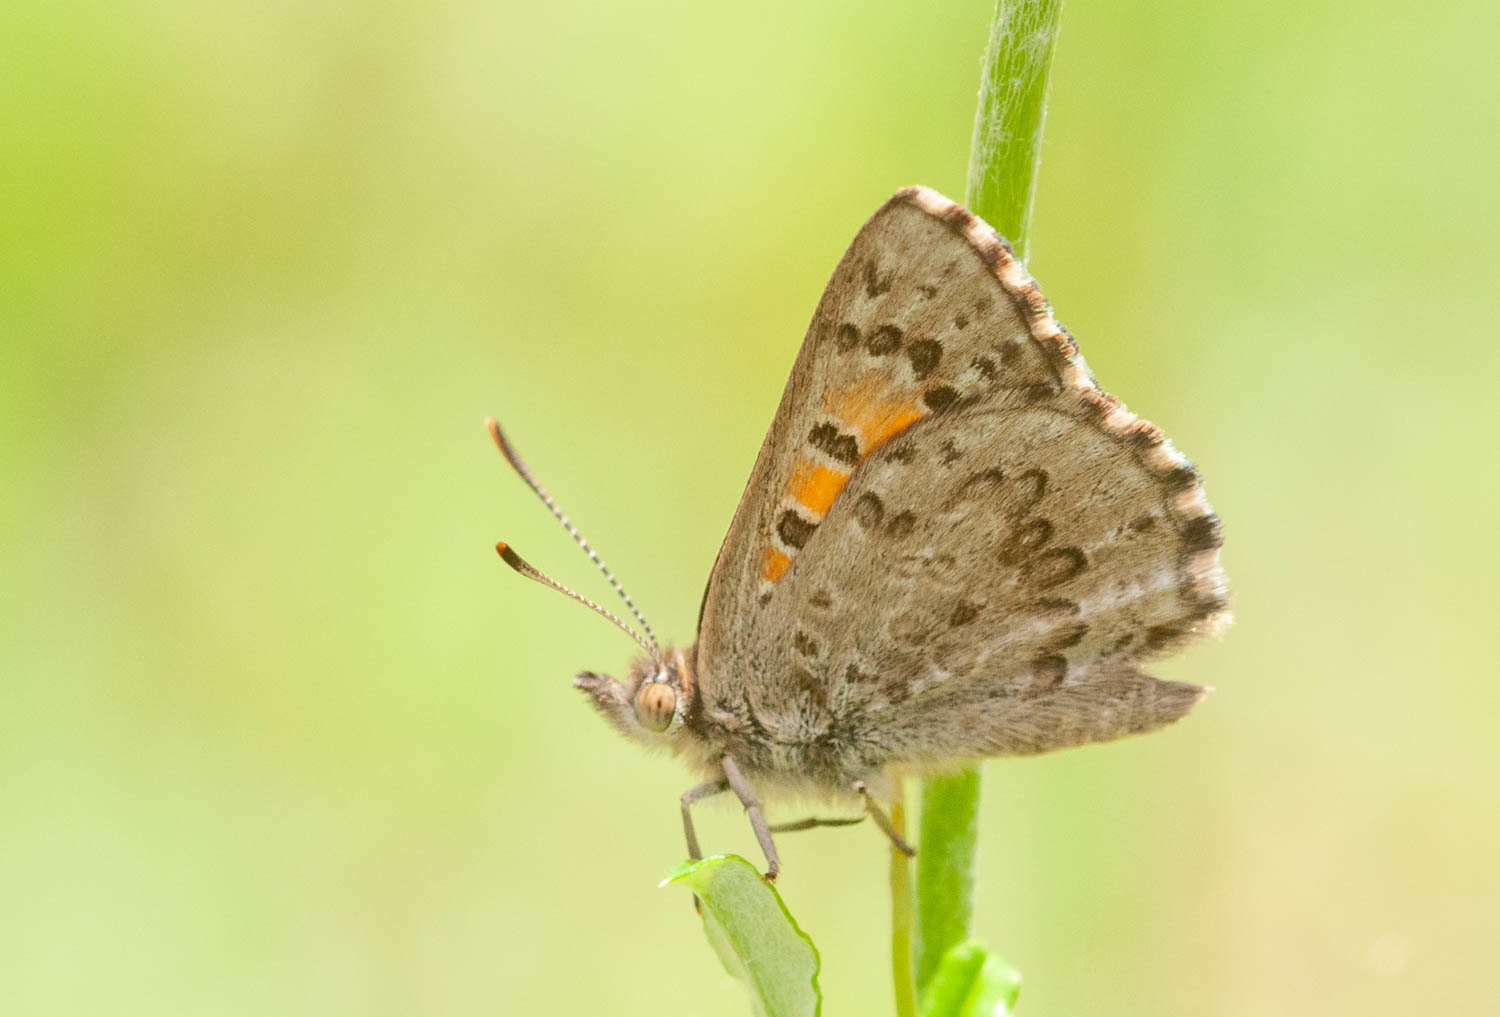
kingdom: Animalia
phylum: Arthropoda
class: Insecta
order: Lepidoptera
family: Lycaenidae
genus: Lucia
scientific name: Lucia limbaria
